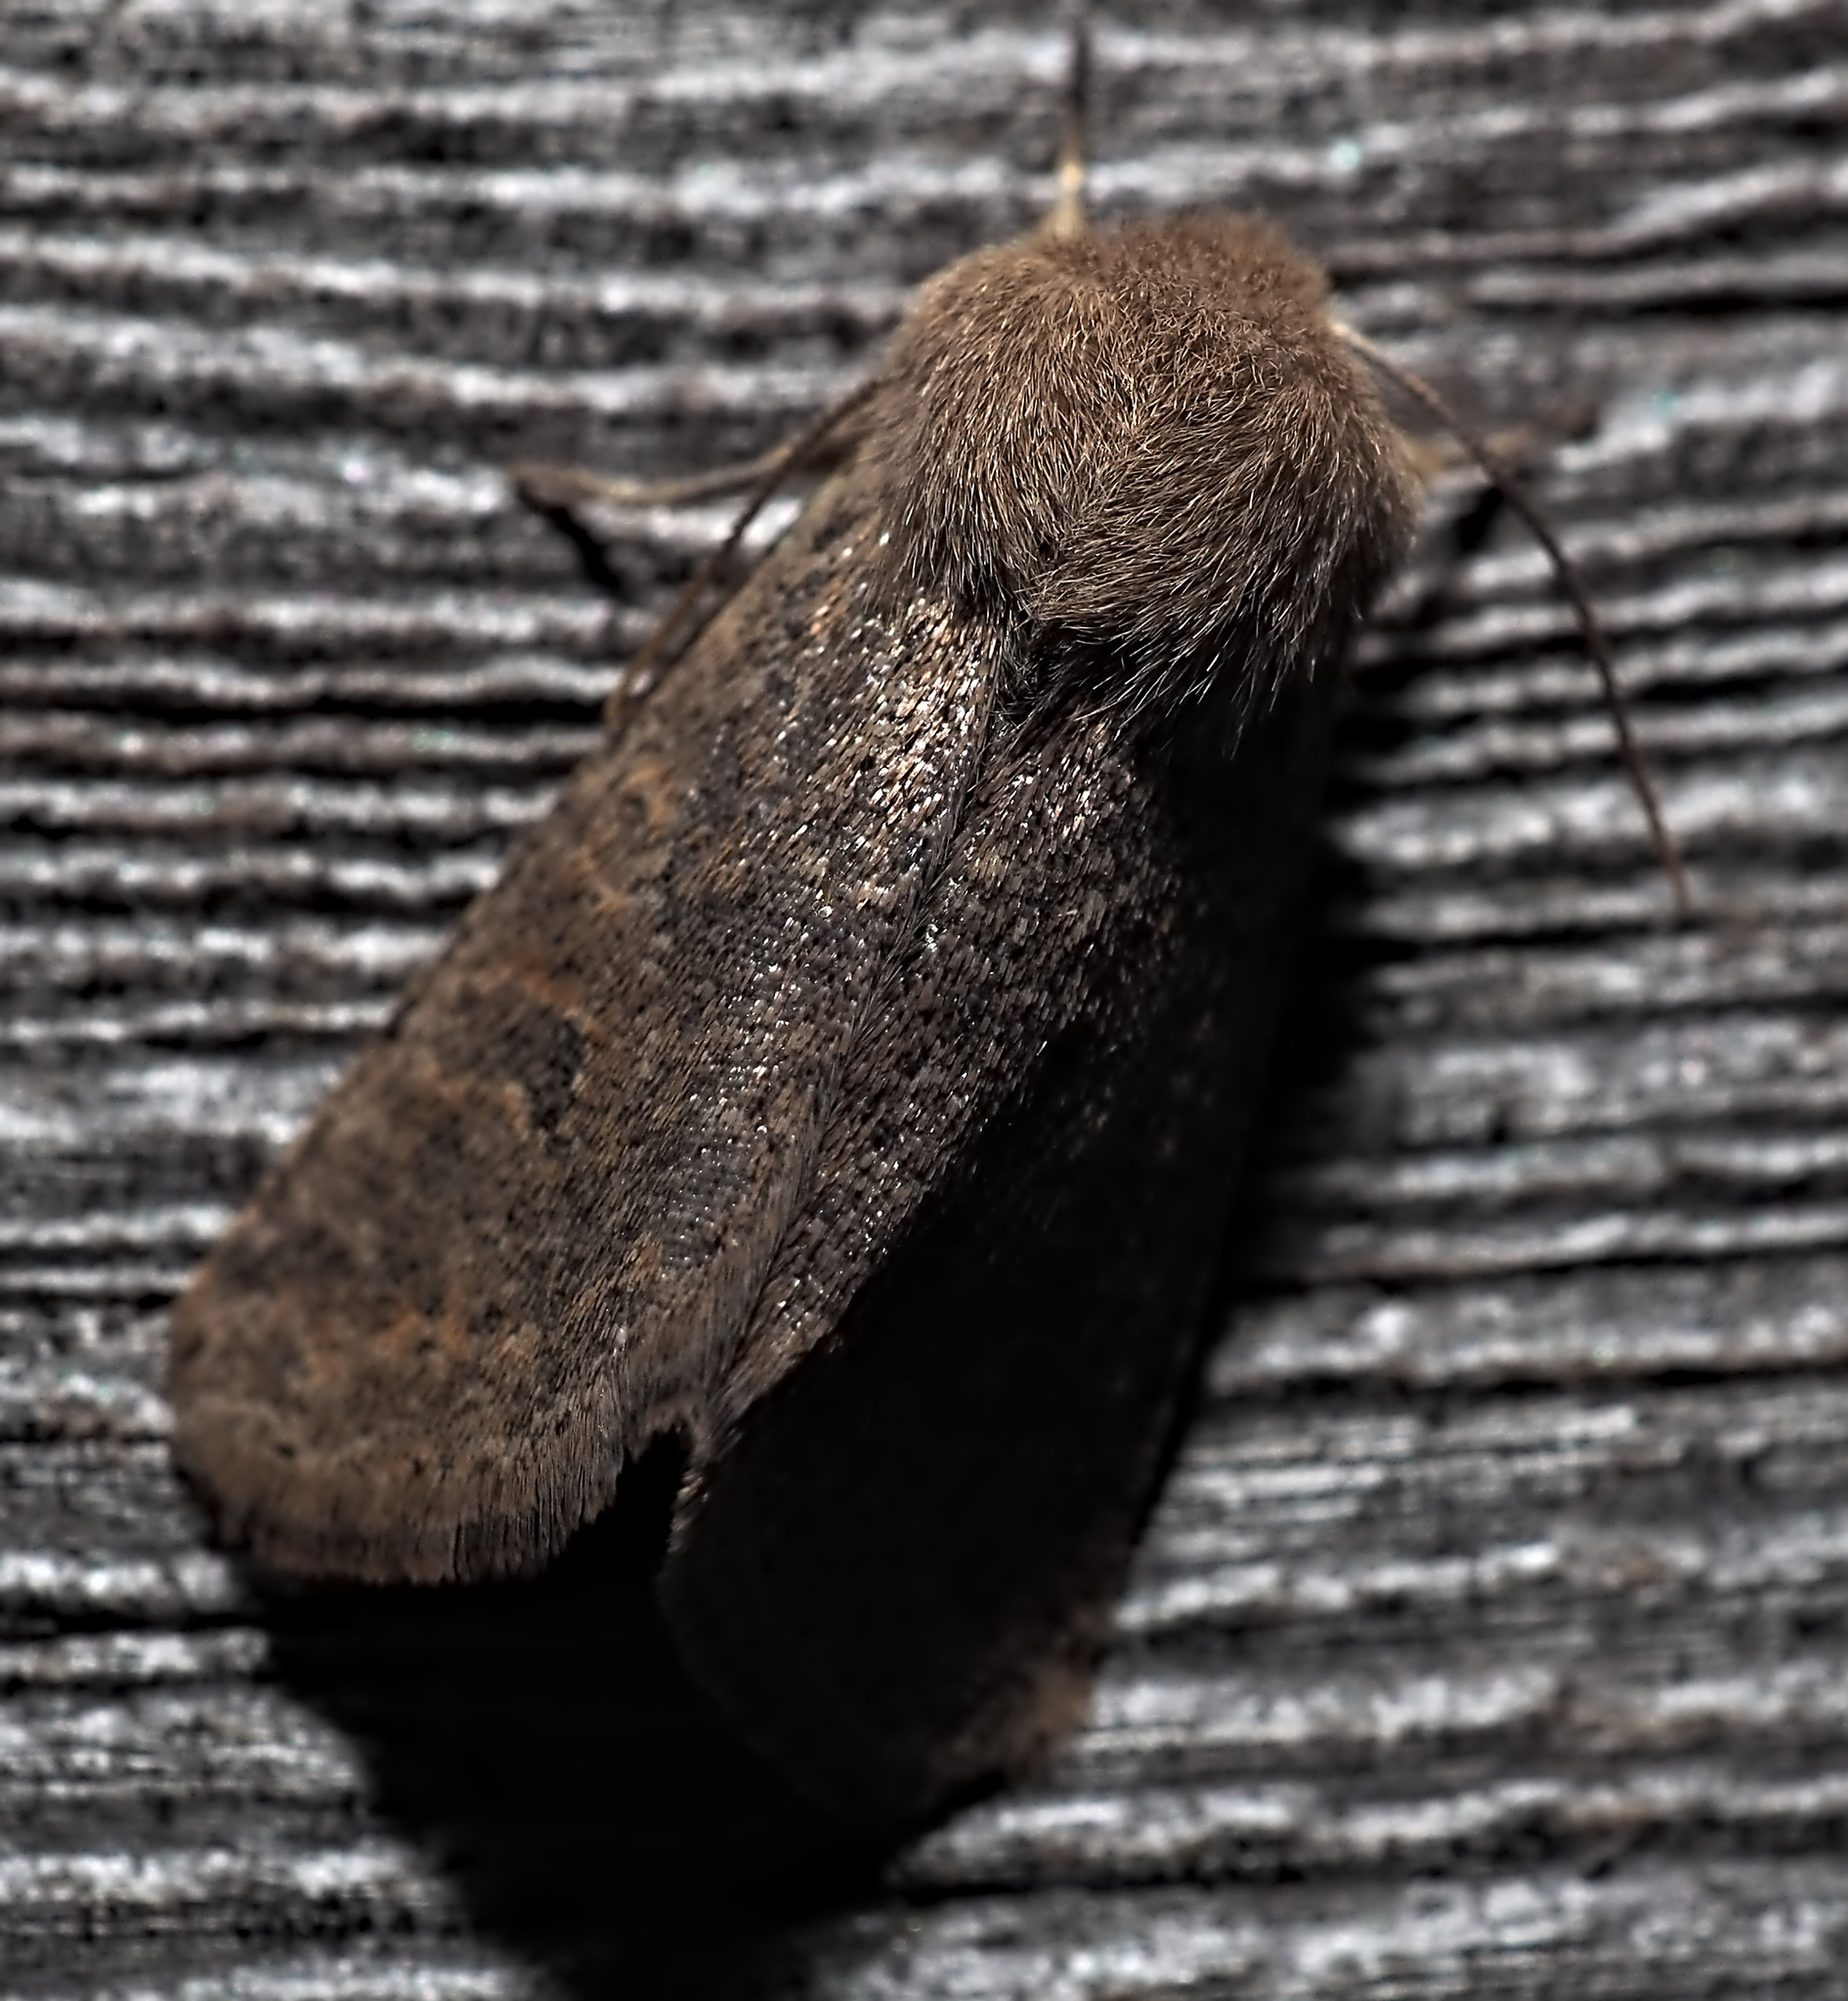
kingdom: Animalia
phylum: Arthropoda
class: Insecta
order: Lepidoptera
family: Noctuidae
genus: Orthosia
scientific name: Orthosia cruda
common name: Small quaker
